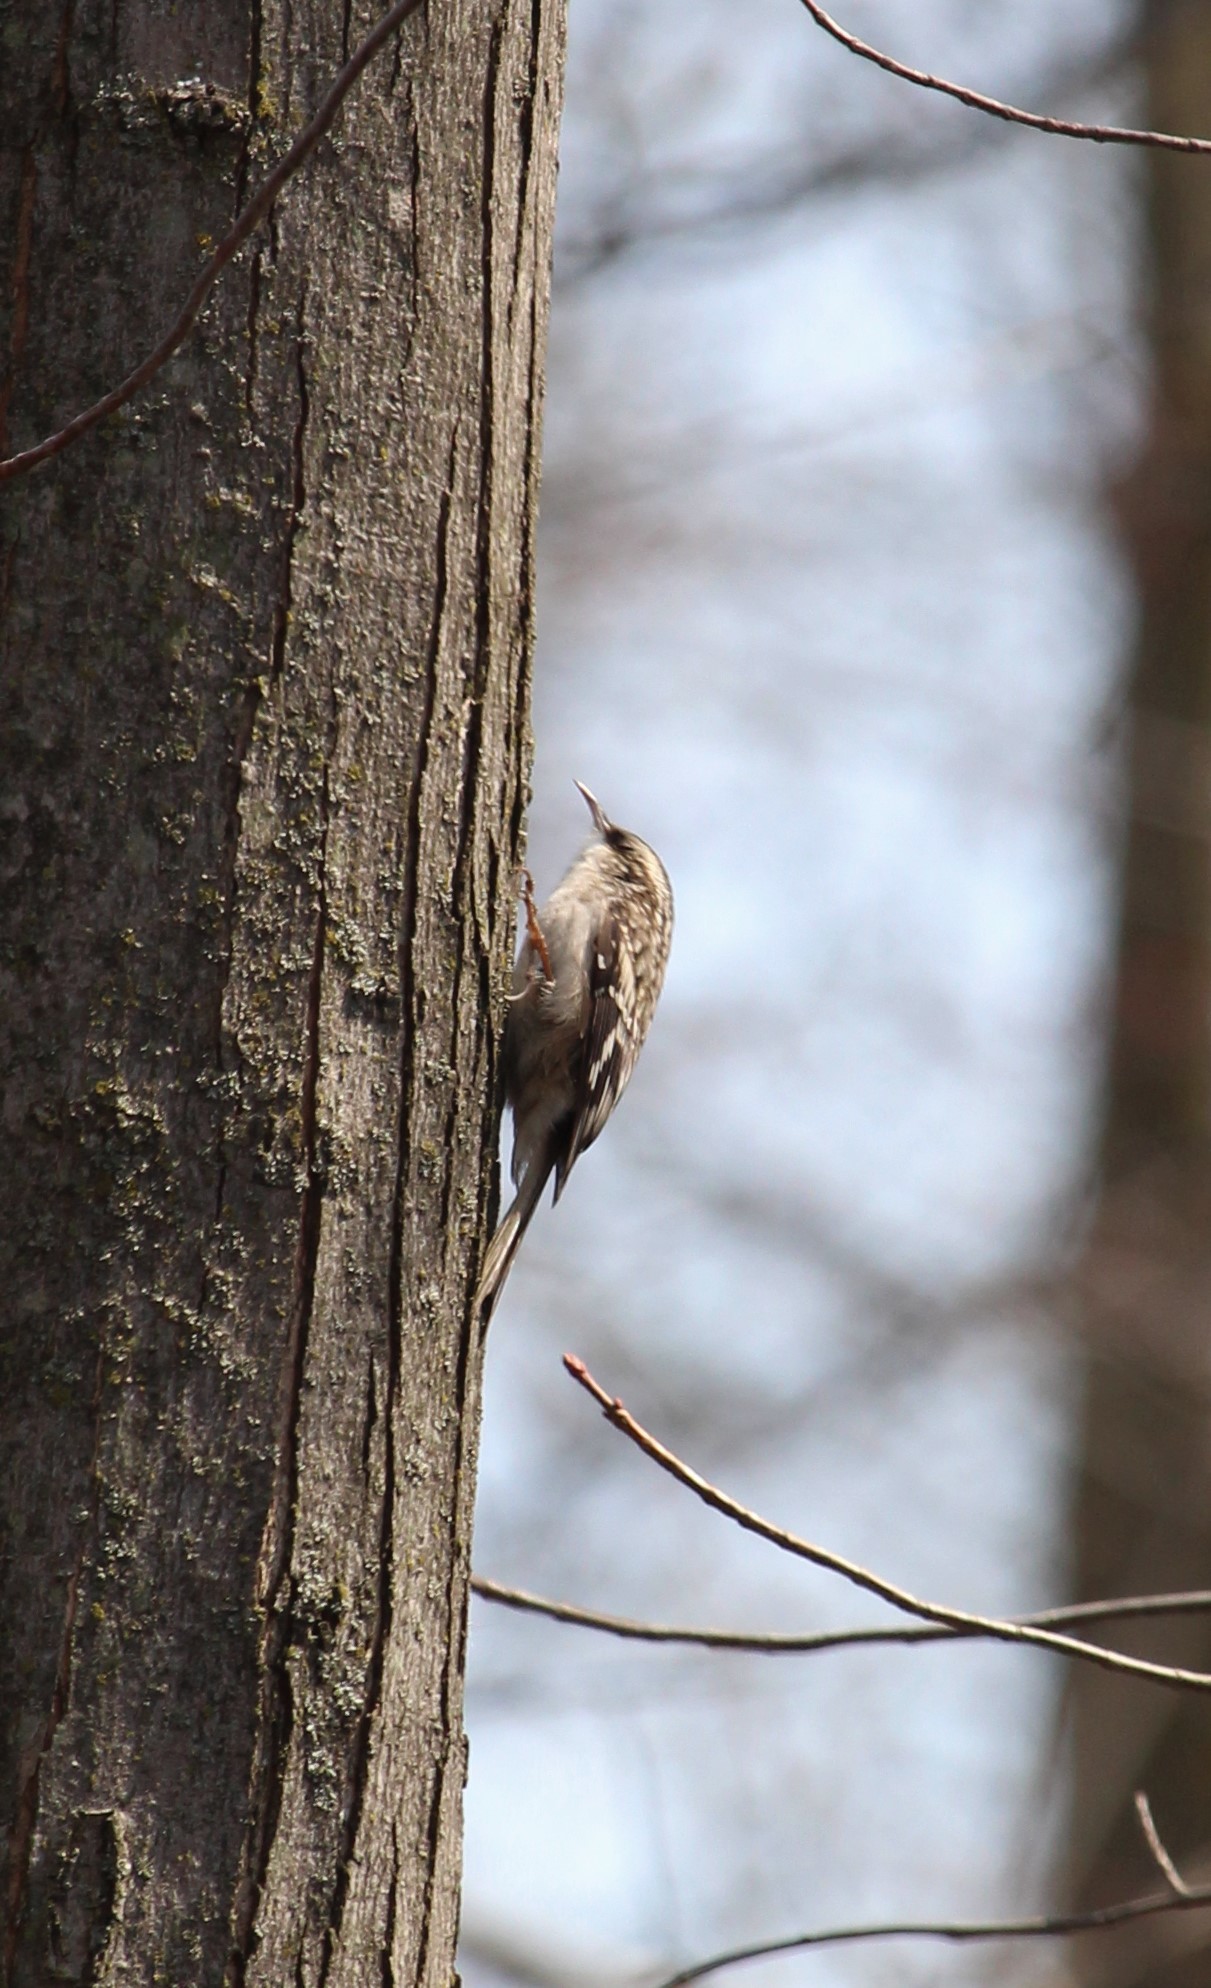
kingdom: Animalia
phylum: Chordata
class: Aves
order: Passeriformes
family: Certhiidae
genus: Certhia
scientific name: Certhia americana
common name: Brown creeper
